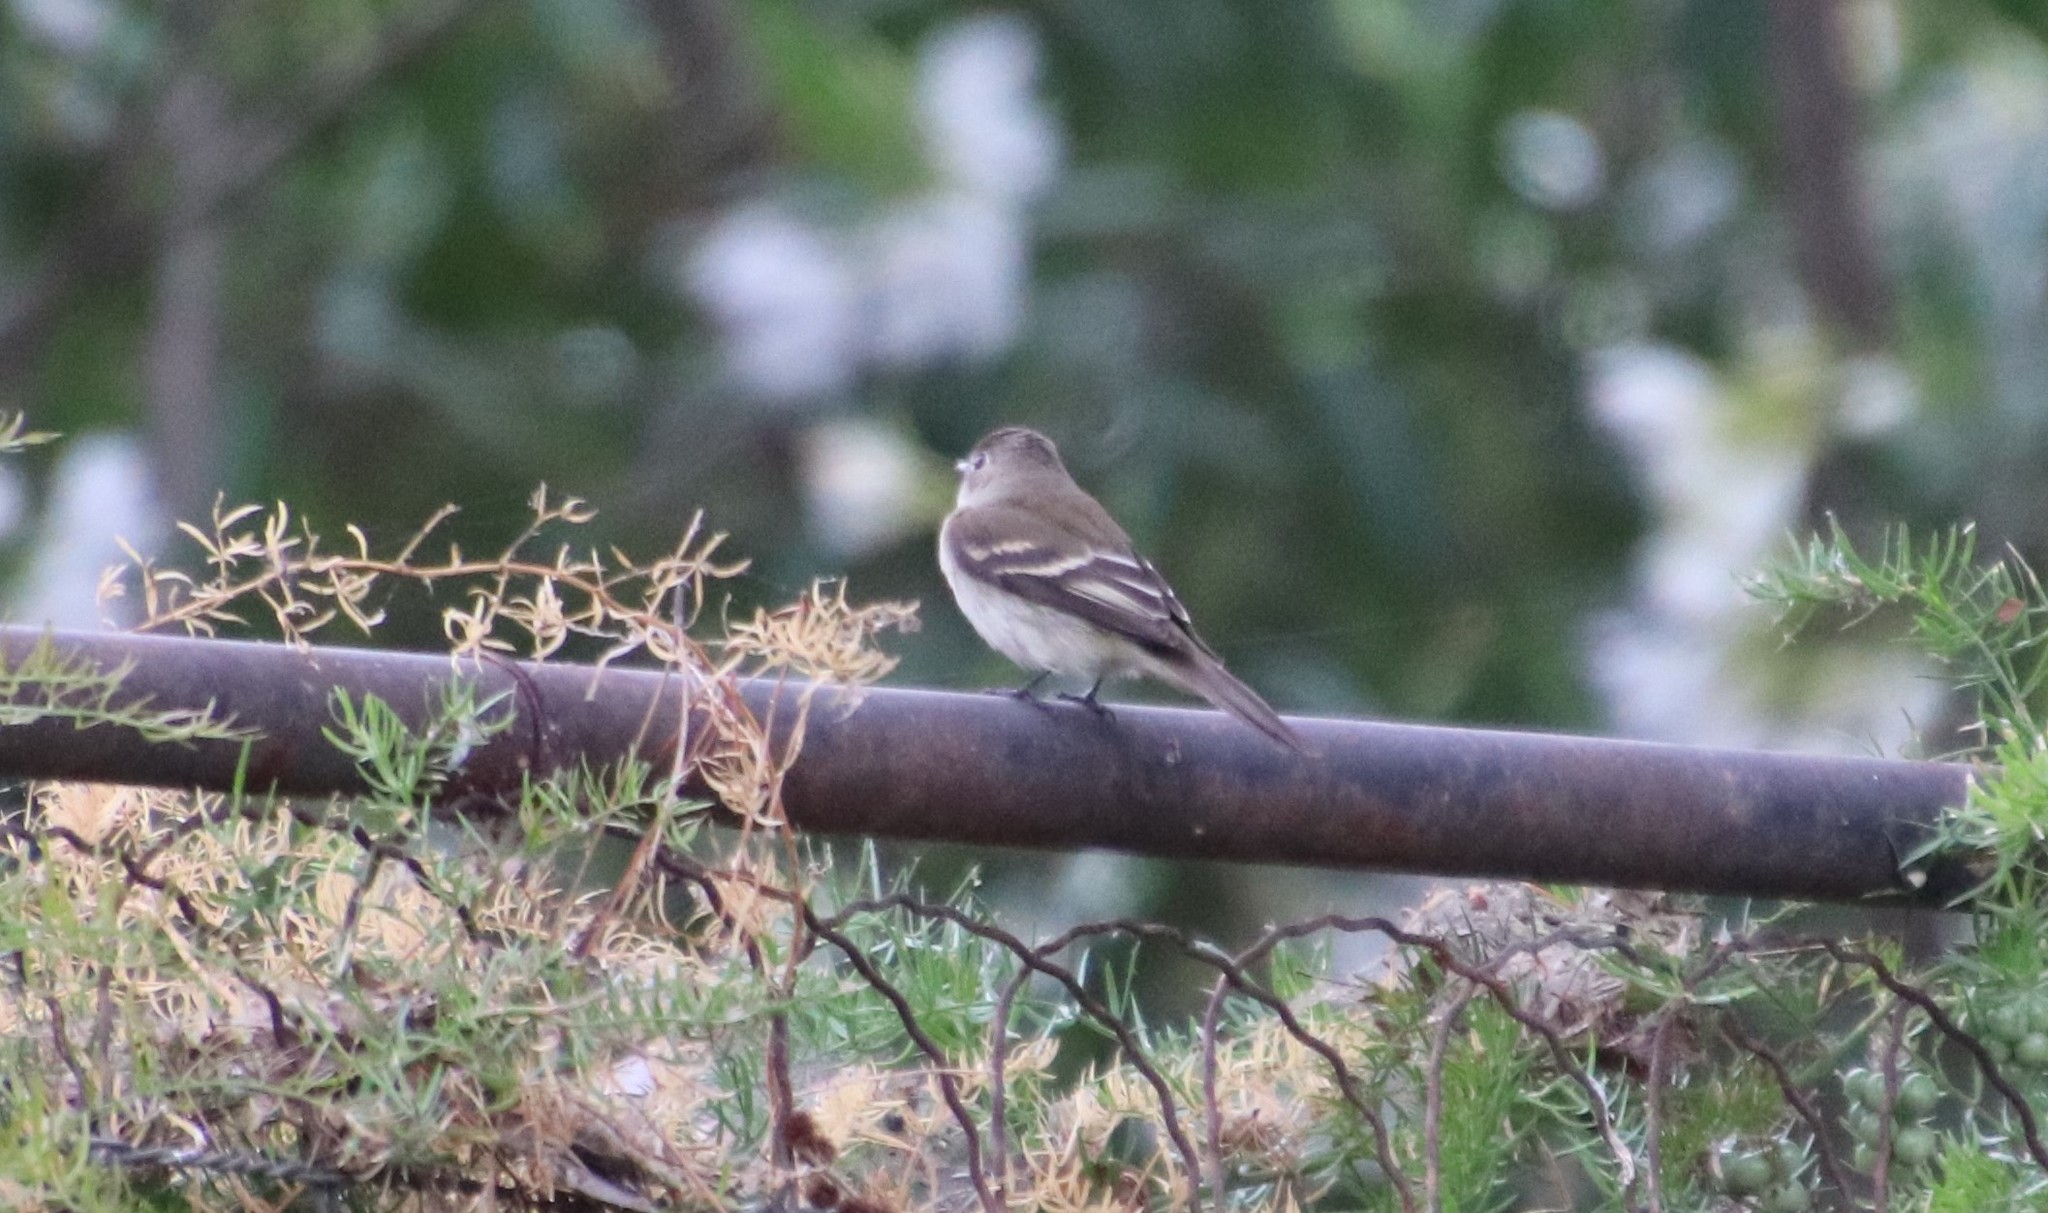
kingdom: Animalia
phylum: Chordata
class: Aves
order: Passeriformes
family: Tyrannidae
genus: Empidonax
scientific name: Empidonax minimus
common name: Least flycatcher
